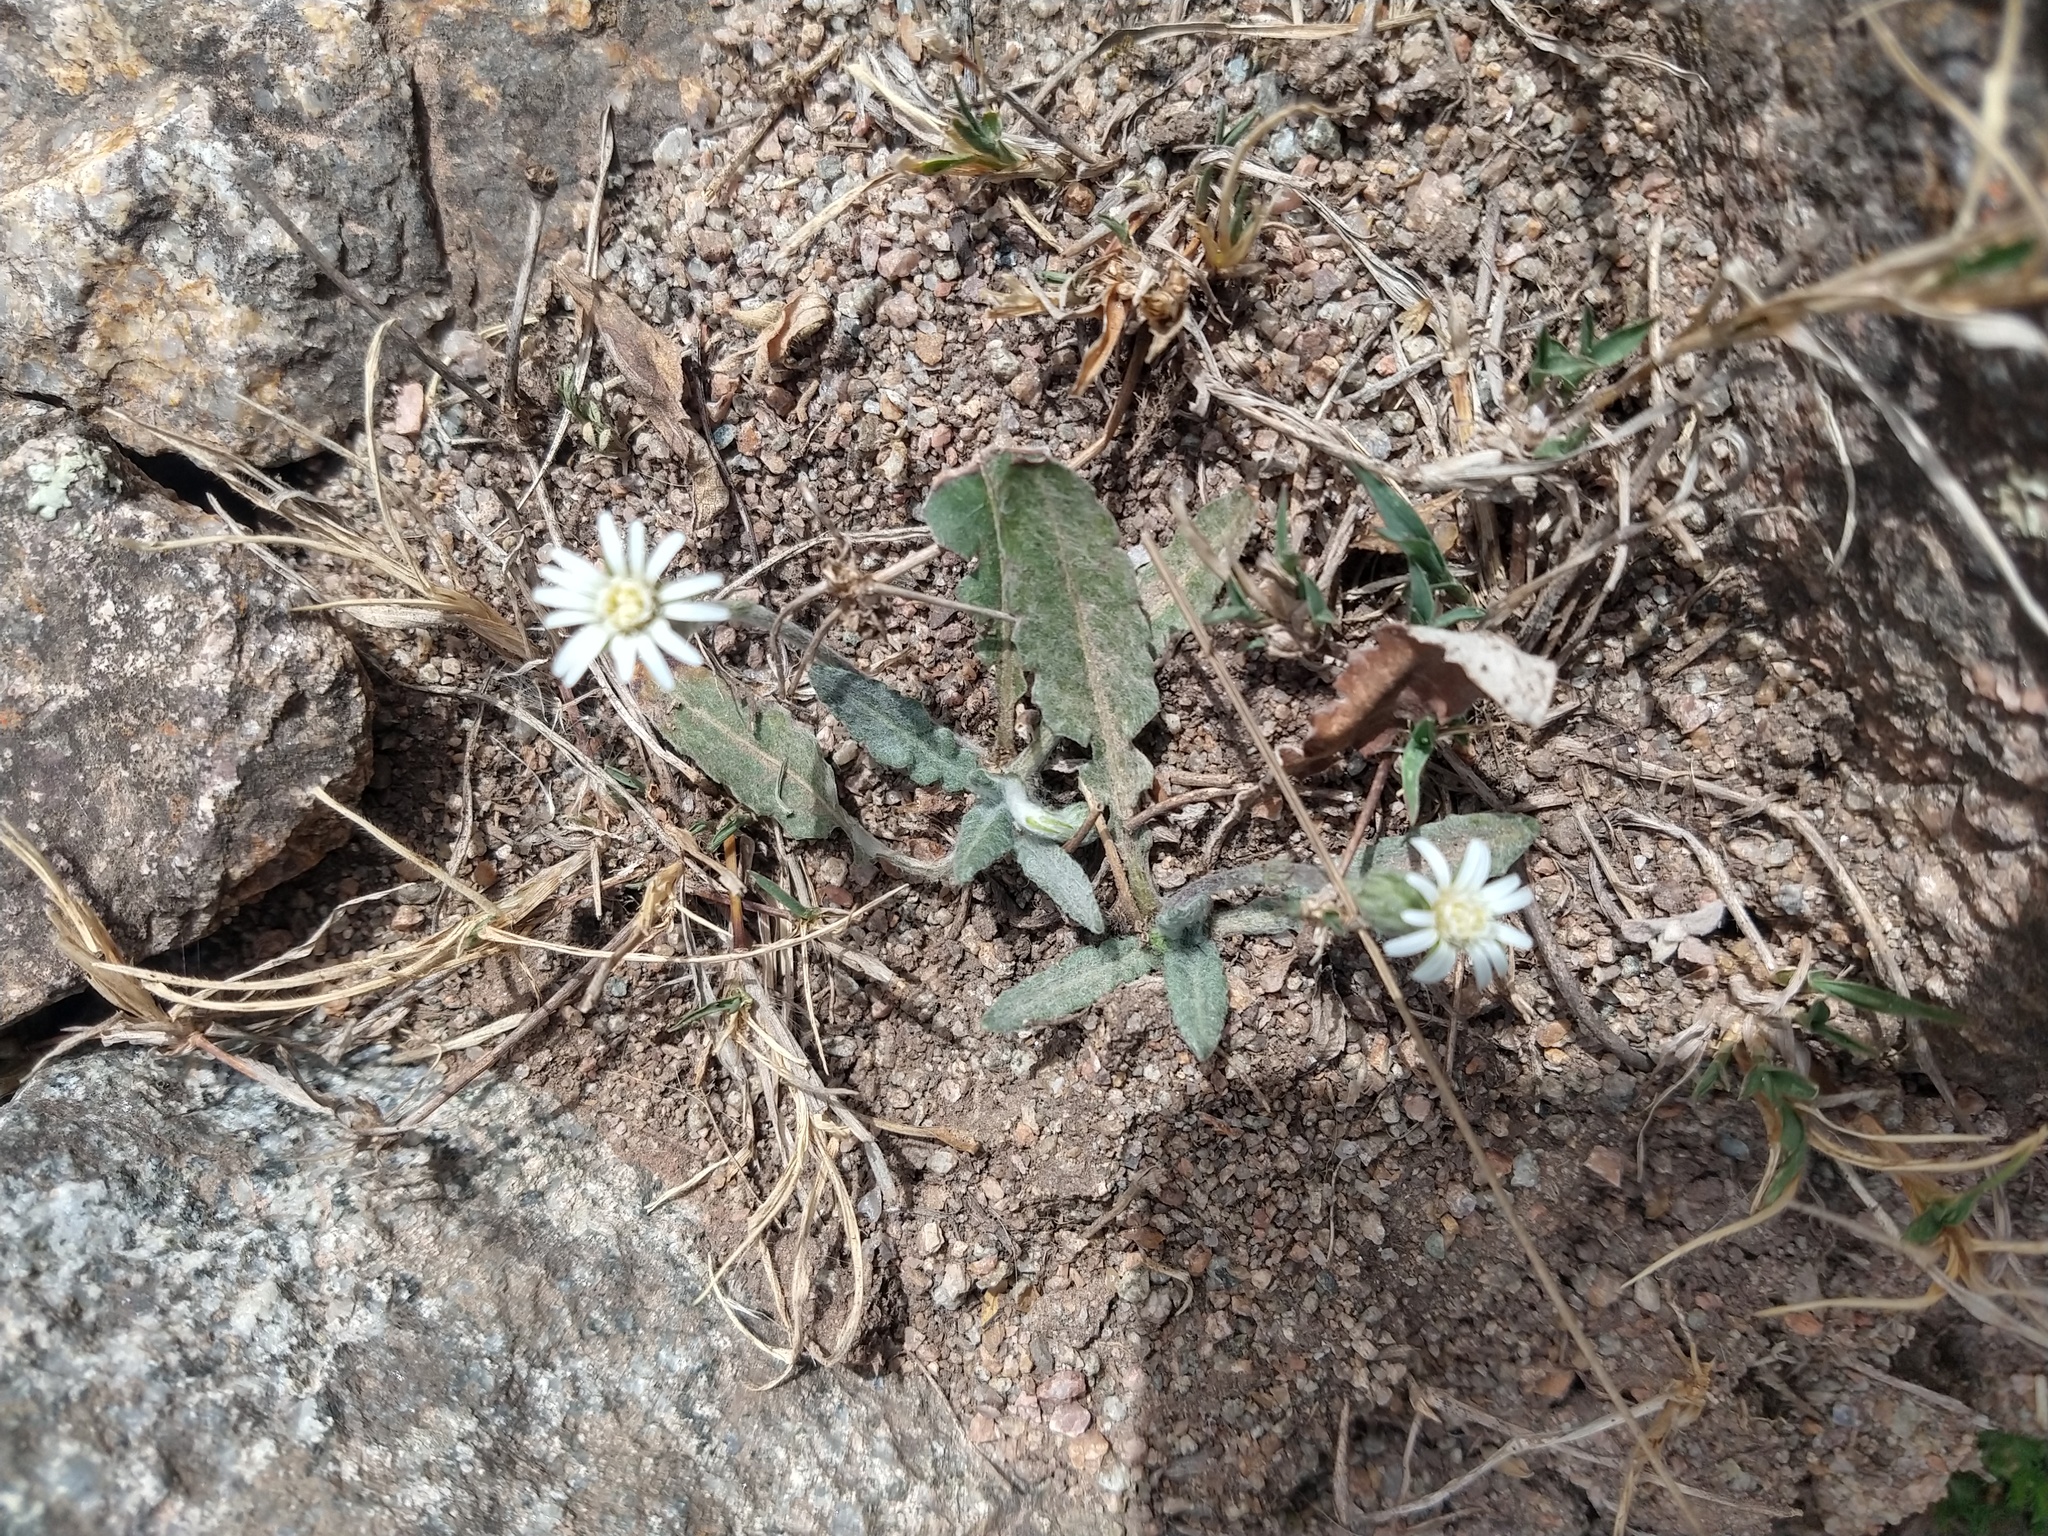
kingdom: Plantae
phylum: Tracheophyta
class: Magnoliopsida
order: Asterales
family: Asteraceae
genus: Chaptalia
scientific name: Chaptalia similis
